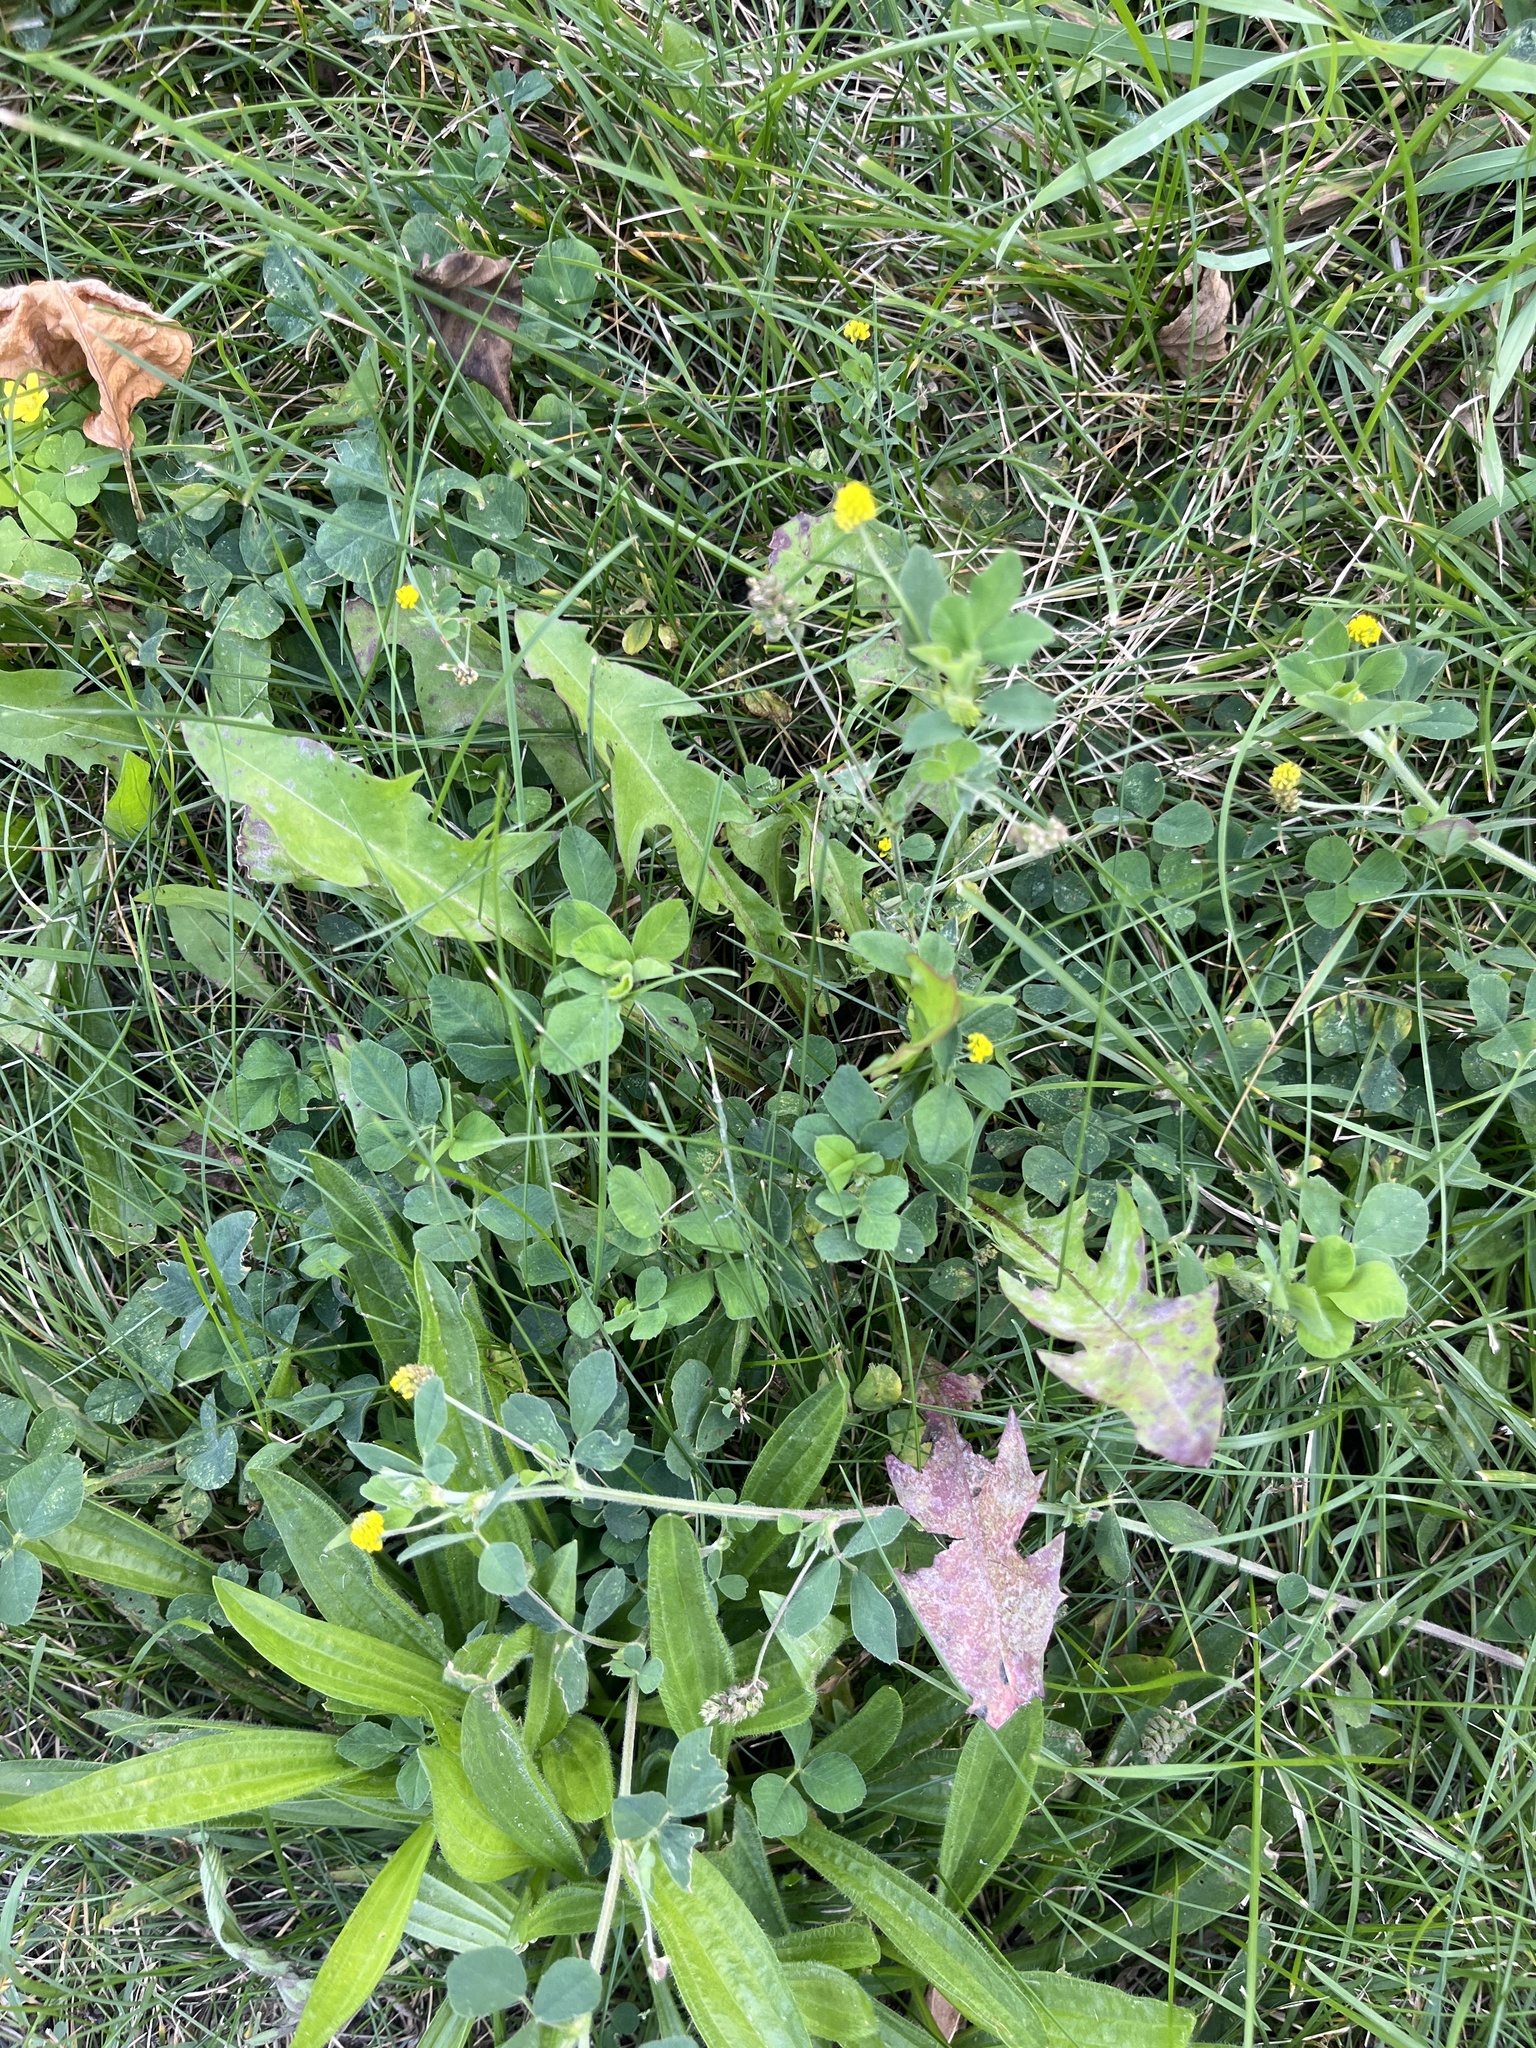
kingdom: Plantae
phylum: Tracheophyta
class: Magnoliopsida
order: Fabales
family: Fabaceae
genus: Medicago
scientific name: Medicago lupulina
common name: Black medick
